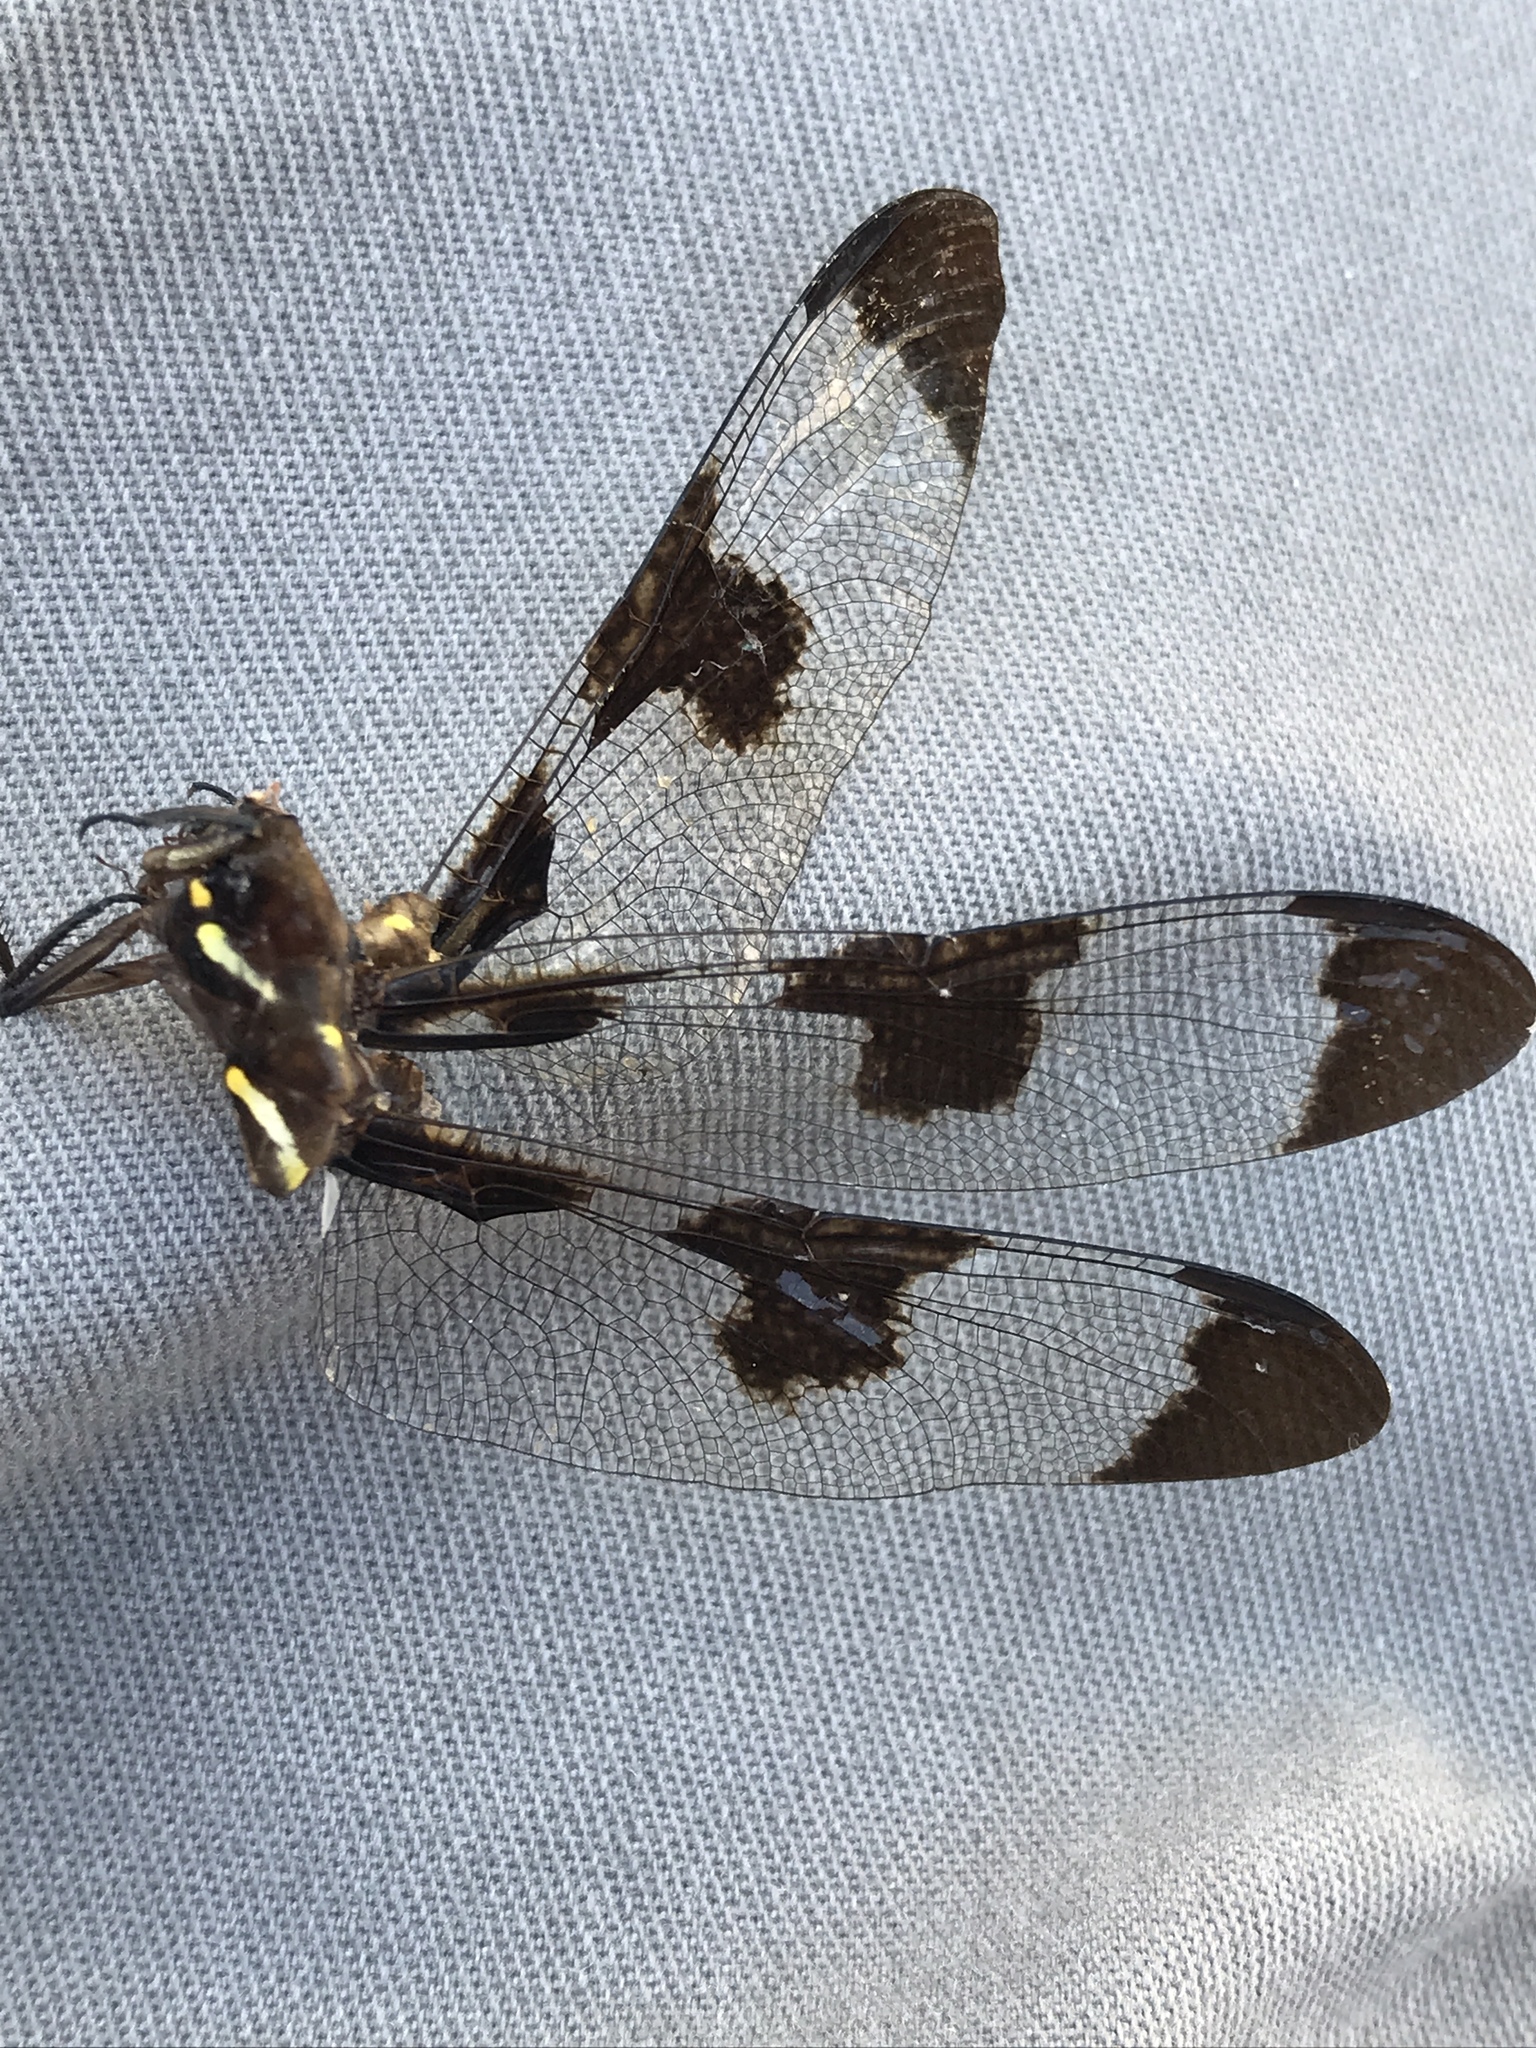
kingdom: Animalia
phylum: Arthropoda
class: Insecta
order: Odonata
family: Libellulidae
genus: Plathemis
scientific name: Plathemis lydia
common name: Common whitetail
